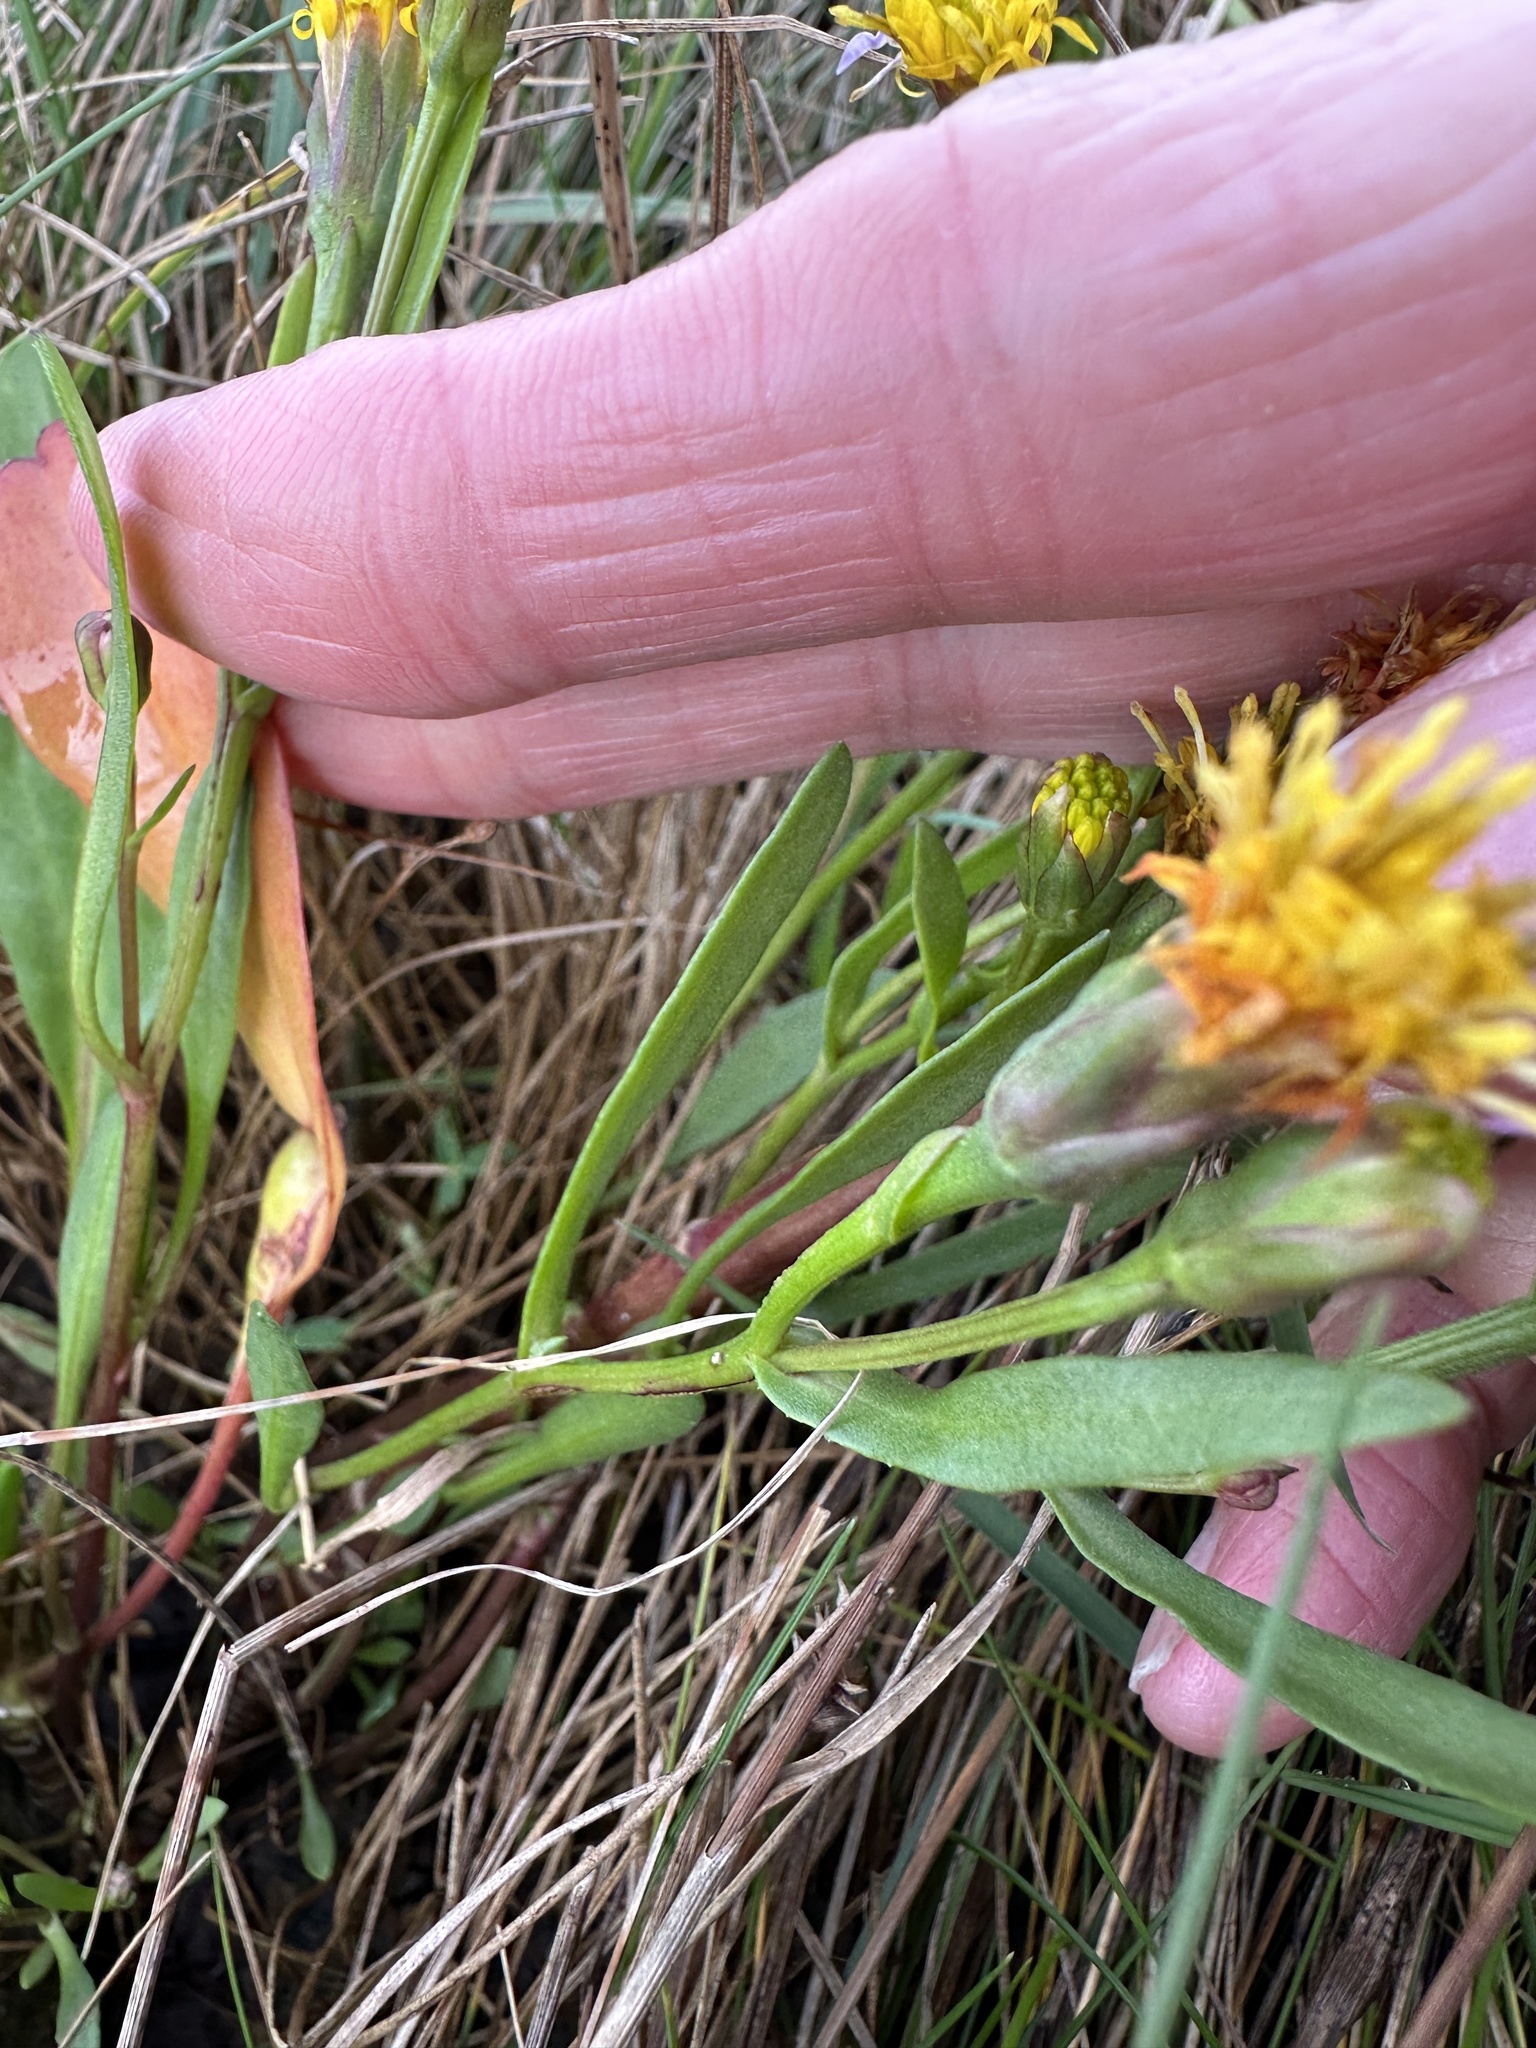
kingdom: Plantae
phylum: Tracheophyta
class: Magnoliopsida
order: Asterales
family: Asteraceae
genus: Tripolium
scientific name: Tripolium pannonicum
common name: Sea aster
